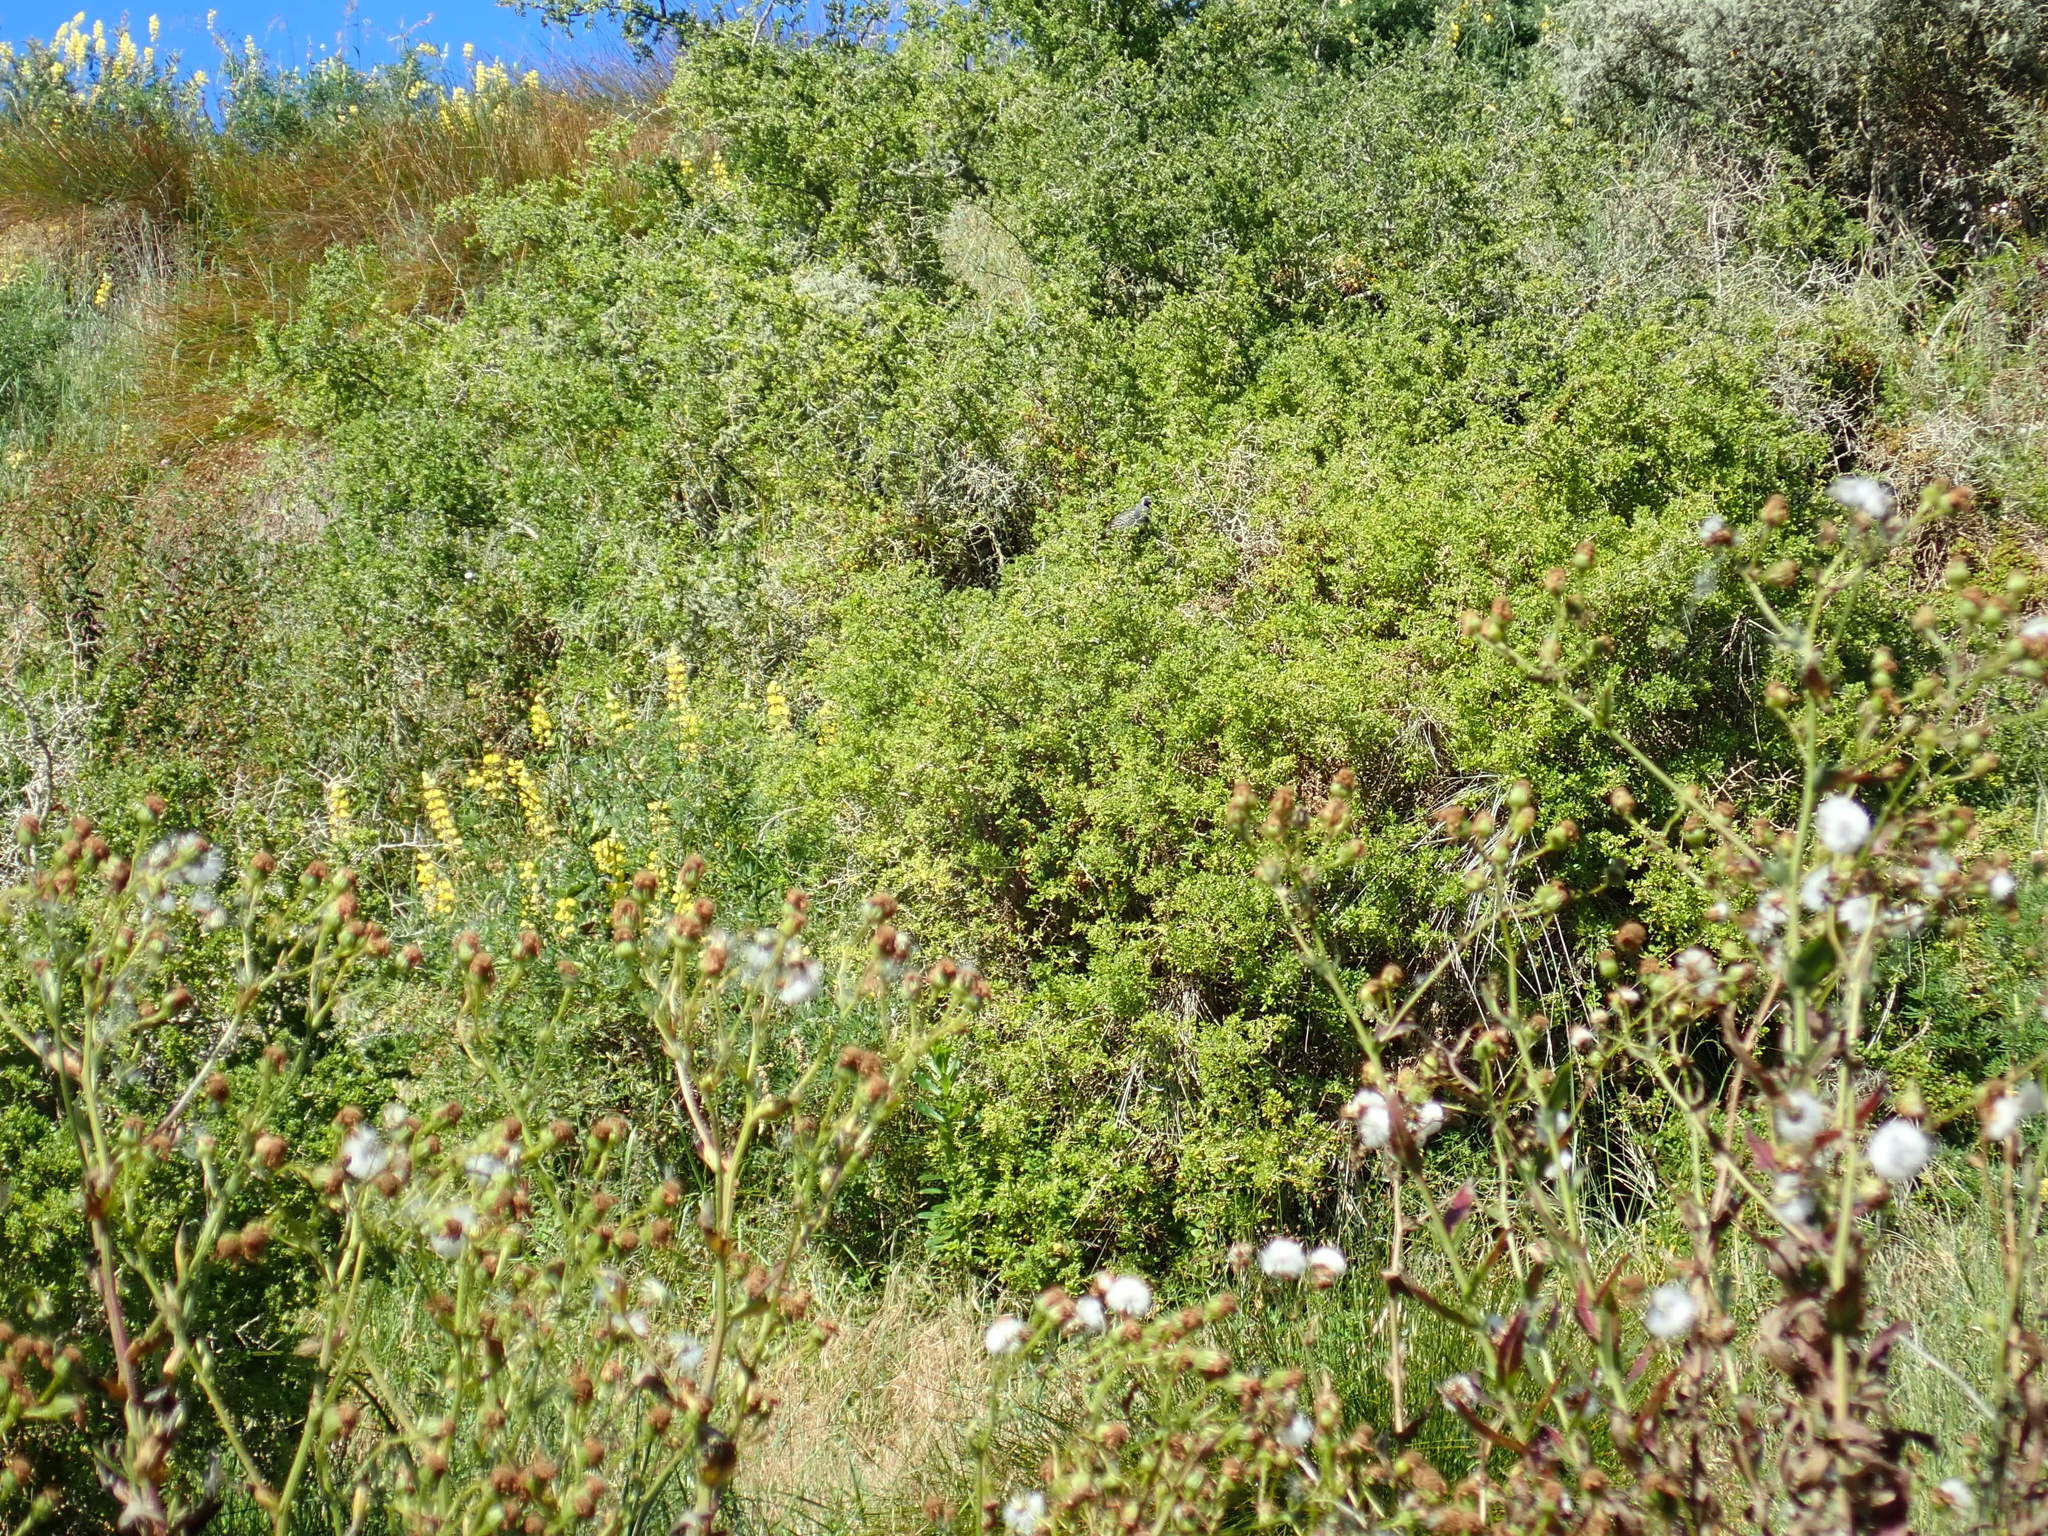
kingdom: Animalia
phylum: Chordata
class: Aves
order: Galliformes
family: Odontophoridae
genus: Callipepla
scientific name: Callipepla californica
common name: California quail
